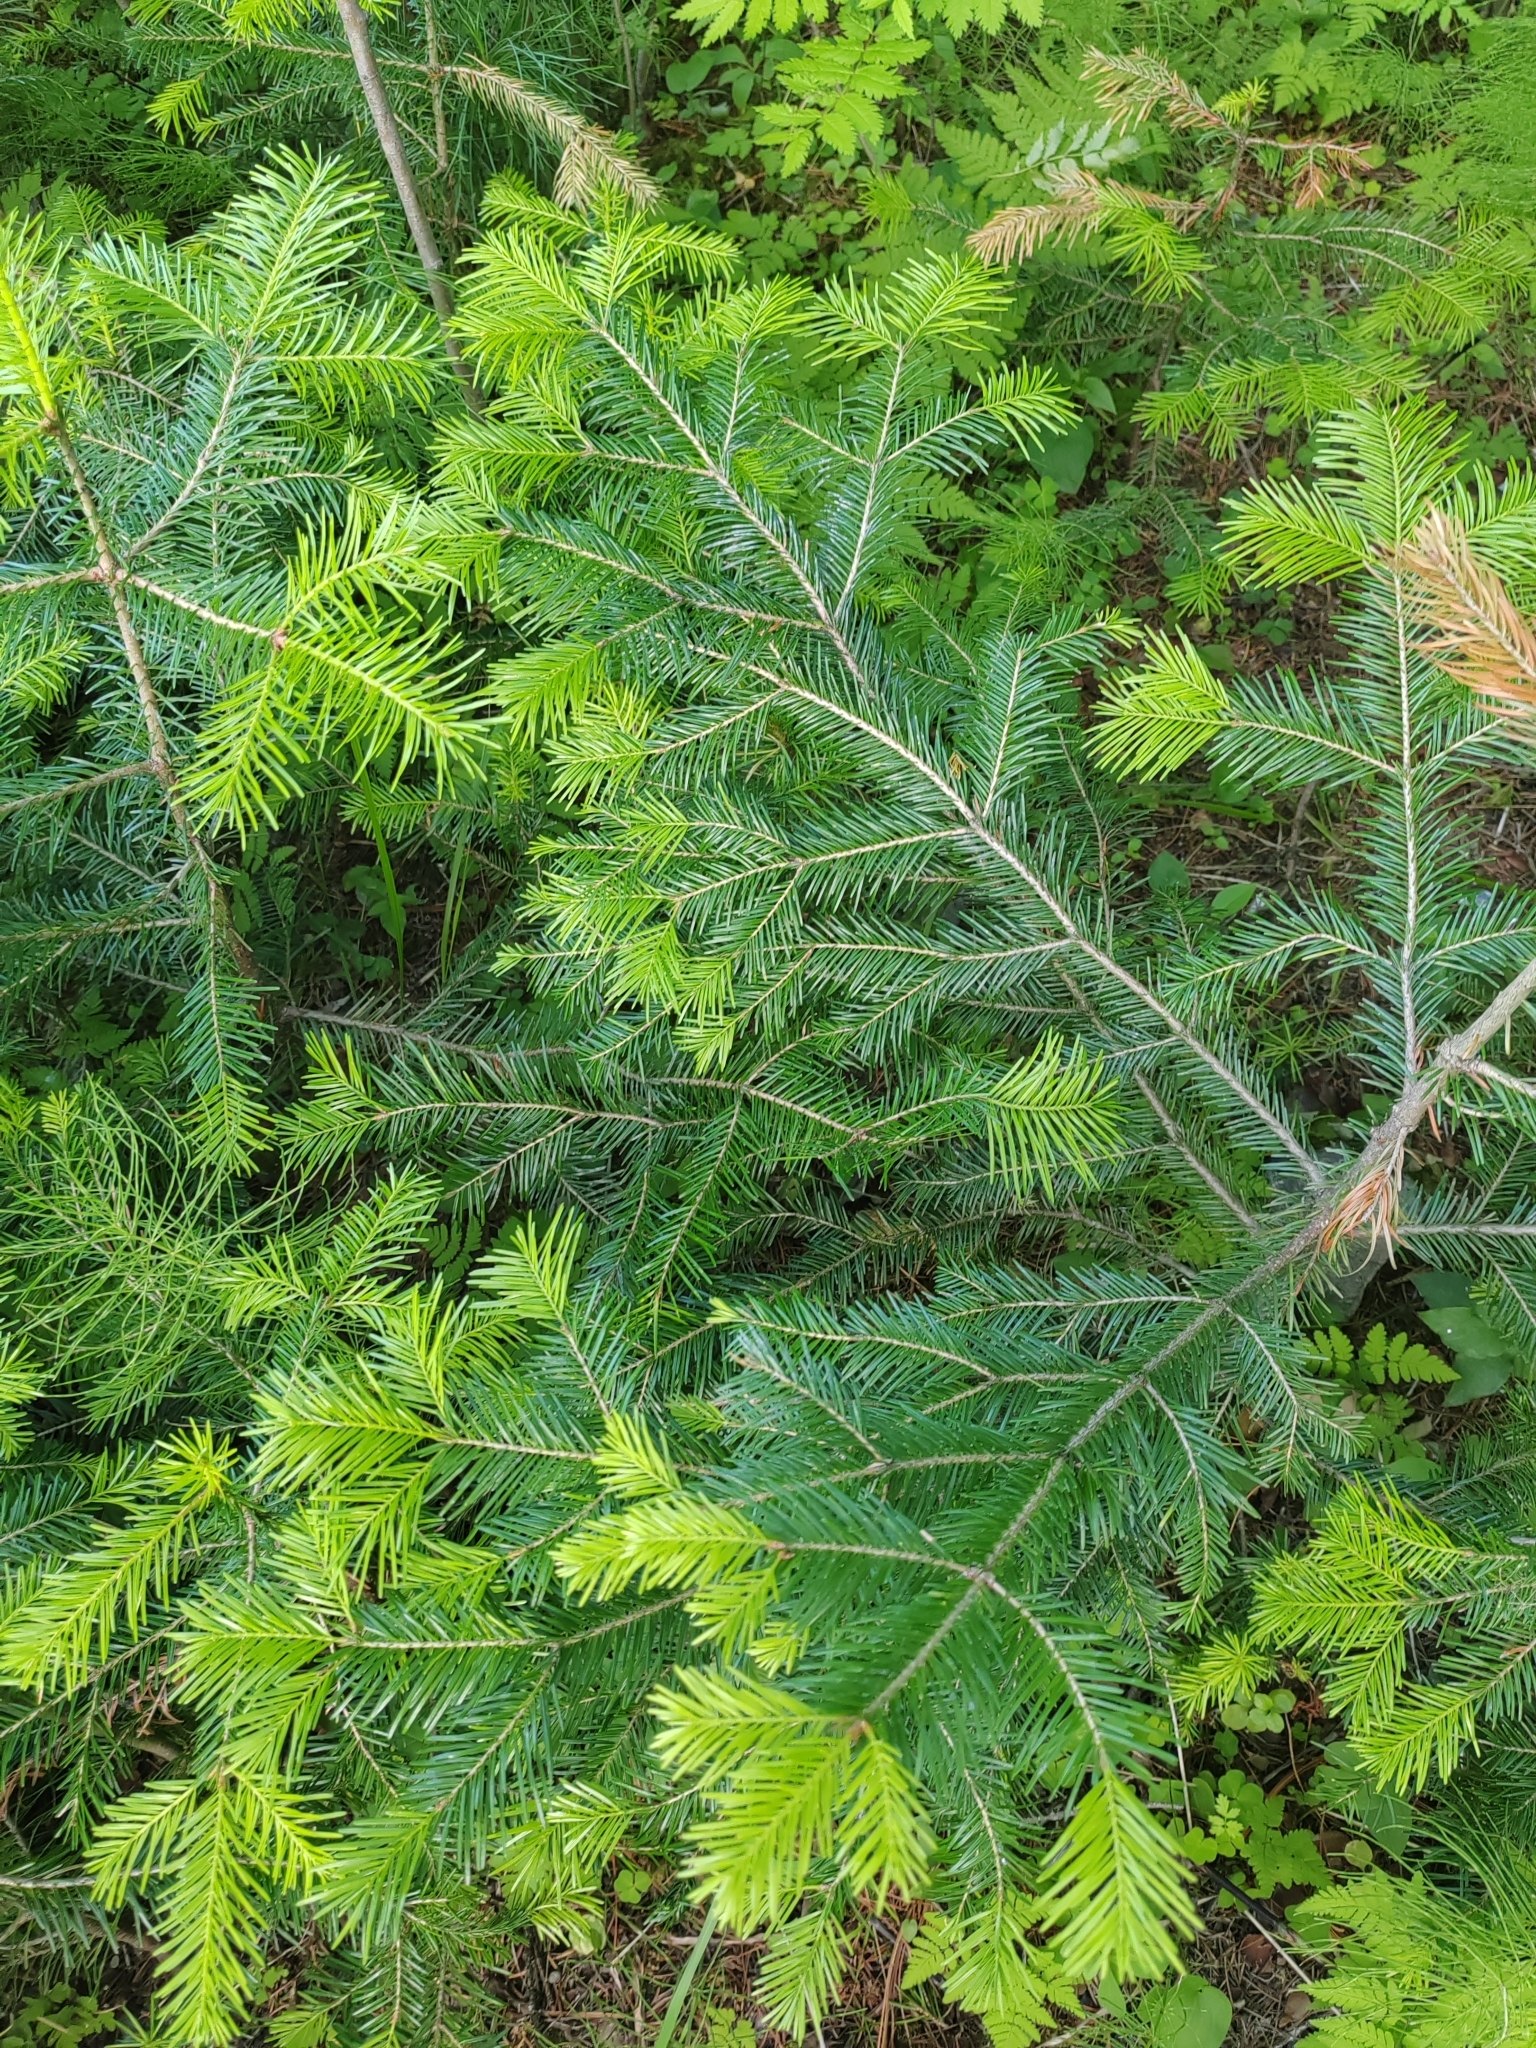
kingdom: Plantae
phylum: Tracheophyta
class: Pinopsida
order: Pinales
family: Pinaceae
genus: Abies
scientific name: Abies sibirica
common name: Siberian fir
